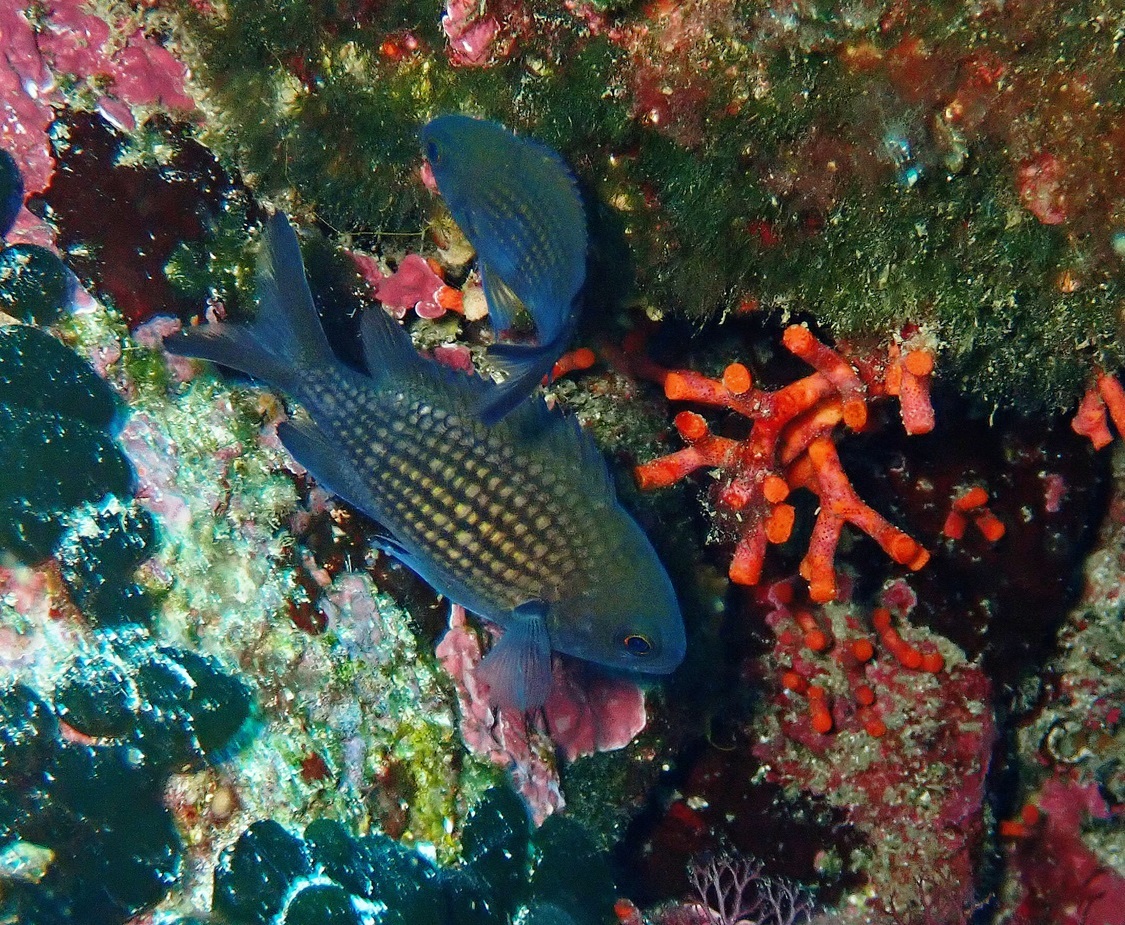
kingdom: Animalia
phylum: Chordata
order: Perciformes
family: Pomacentridae
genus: Chromis
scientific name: Chromis chromis
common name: Damselfish
